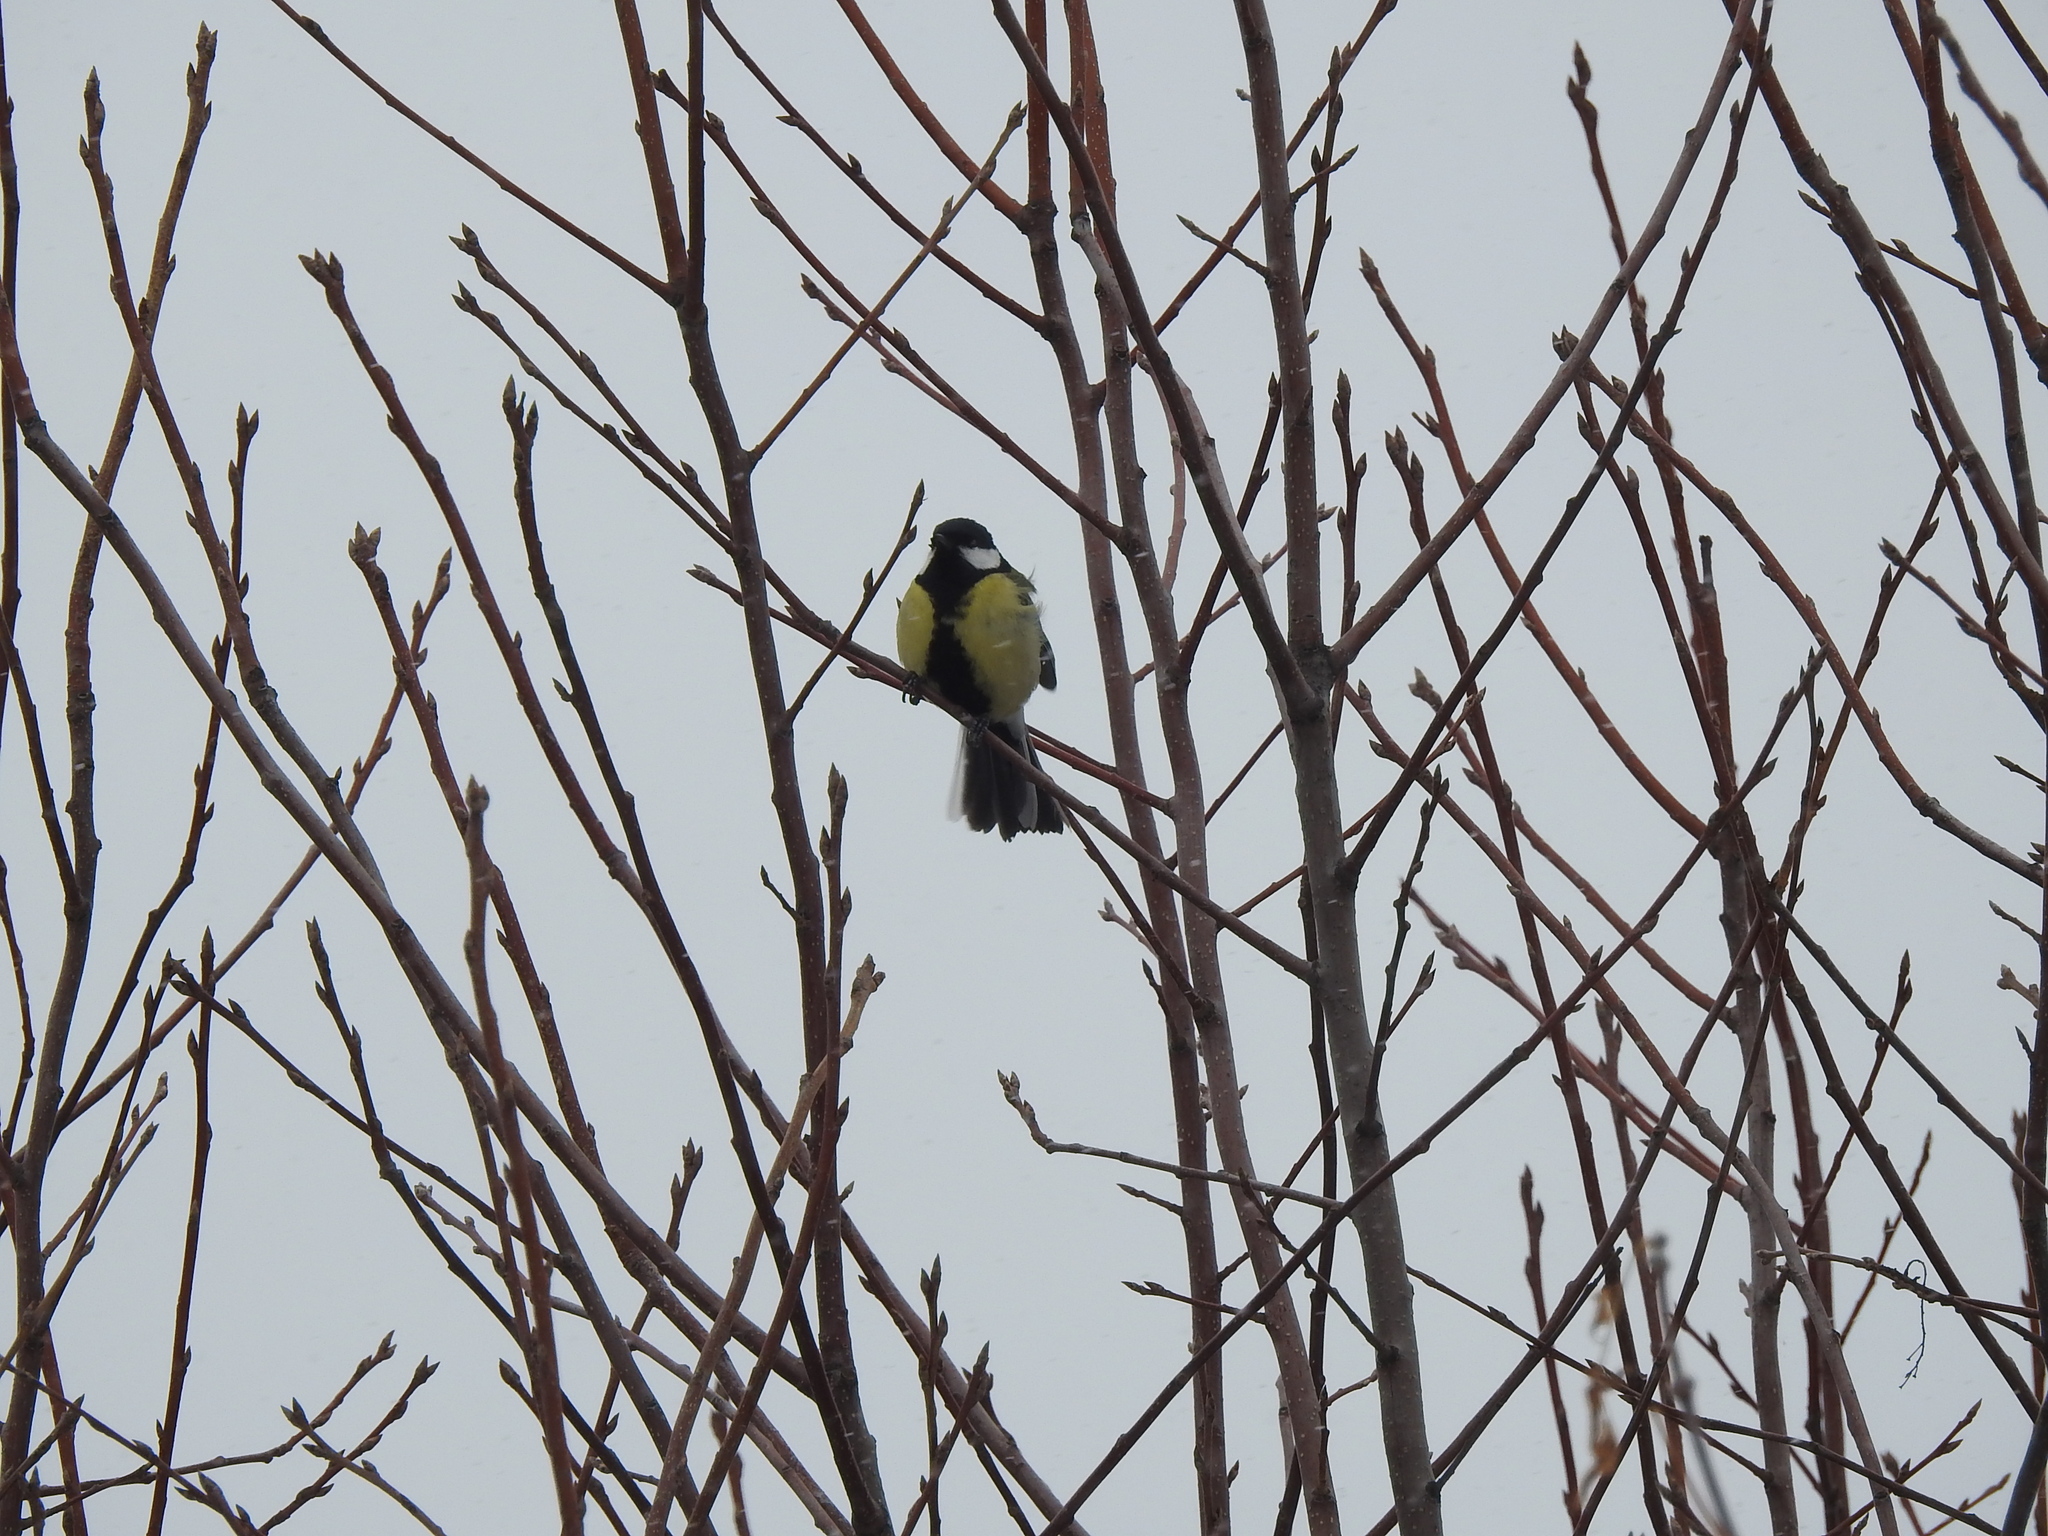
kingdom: Animalia
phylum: Chordata
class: Aves
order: Passeriformes
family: Paridae
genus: Parus
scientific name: Parus major
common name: Great tit
